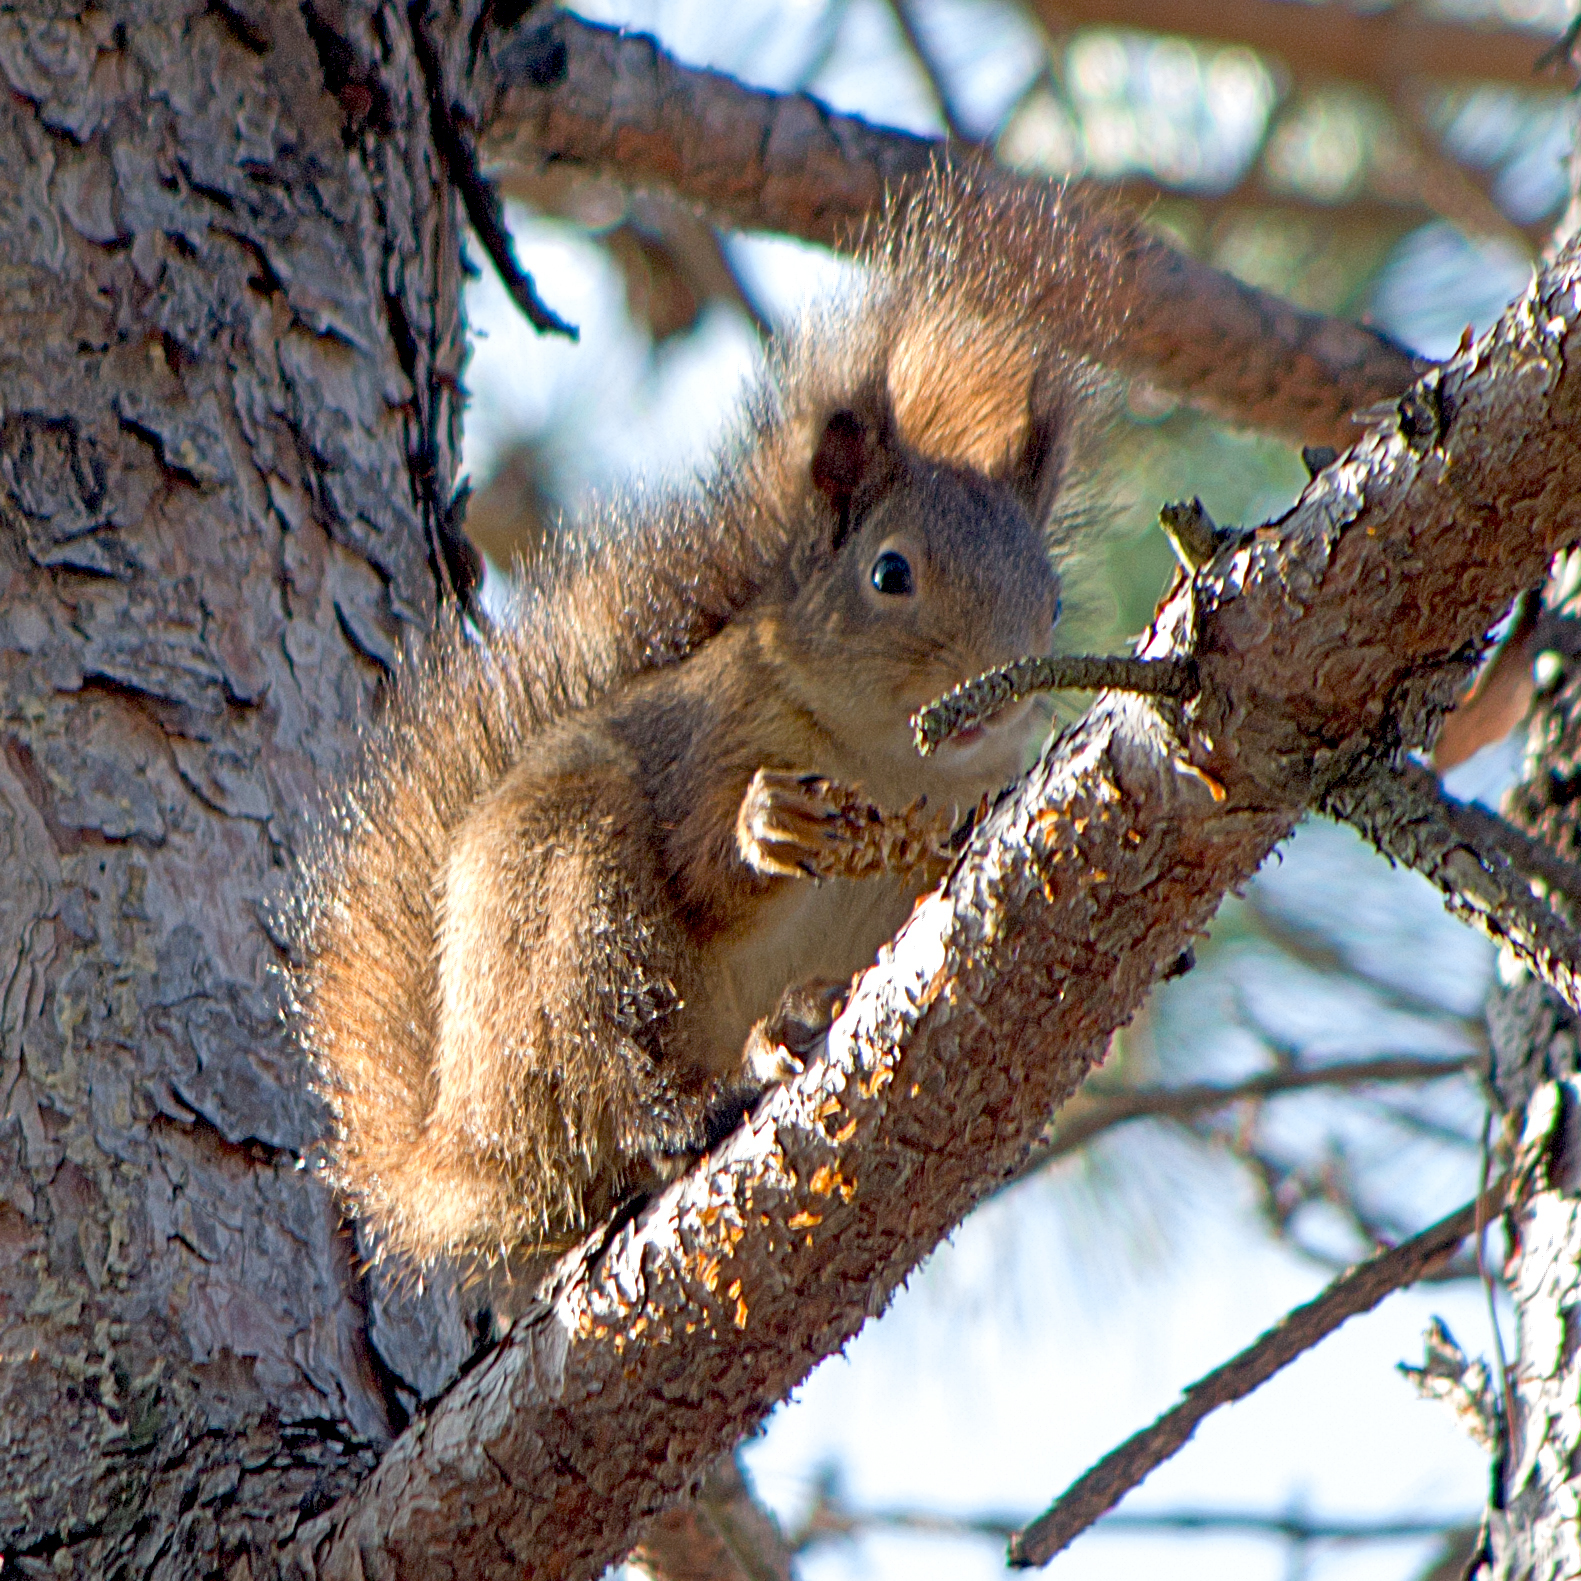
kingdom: Animalia
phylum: Chordata
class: Mammalia
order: Rodentia
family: Sciuridae
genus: Sciurus
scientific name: Sciurus vulgaris
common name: Eurasian red squirrel
